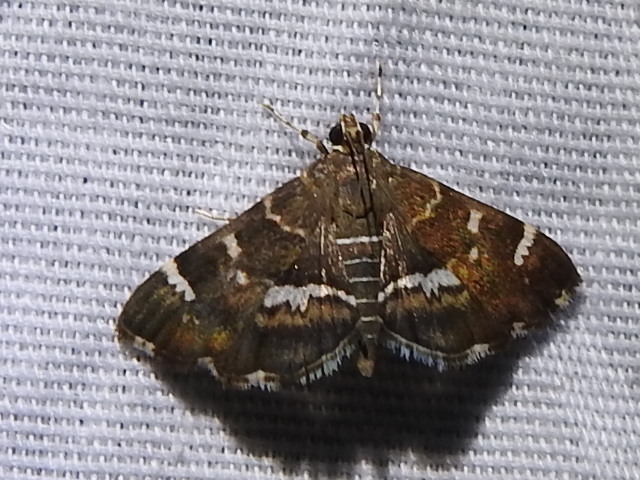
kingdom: Animalia
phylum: Arthropoda
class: Insecta
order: Lepidoptera
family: Crambidae
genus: Hymenia
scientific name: Hymenia perspectalis
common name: Spotted beet webworm
